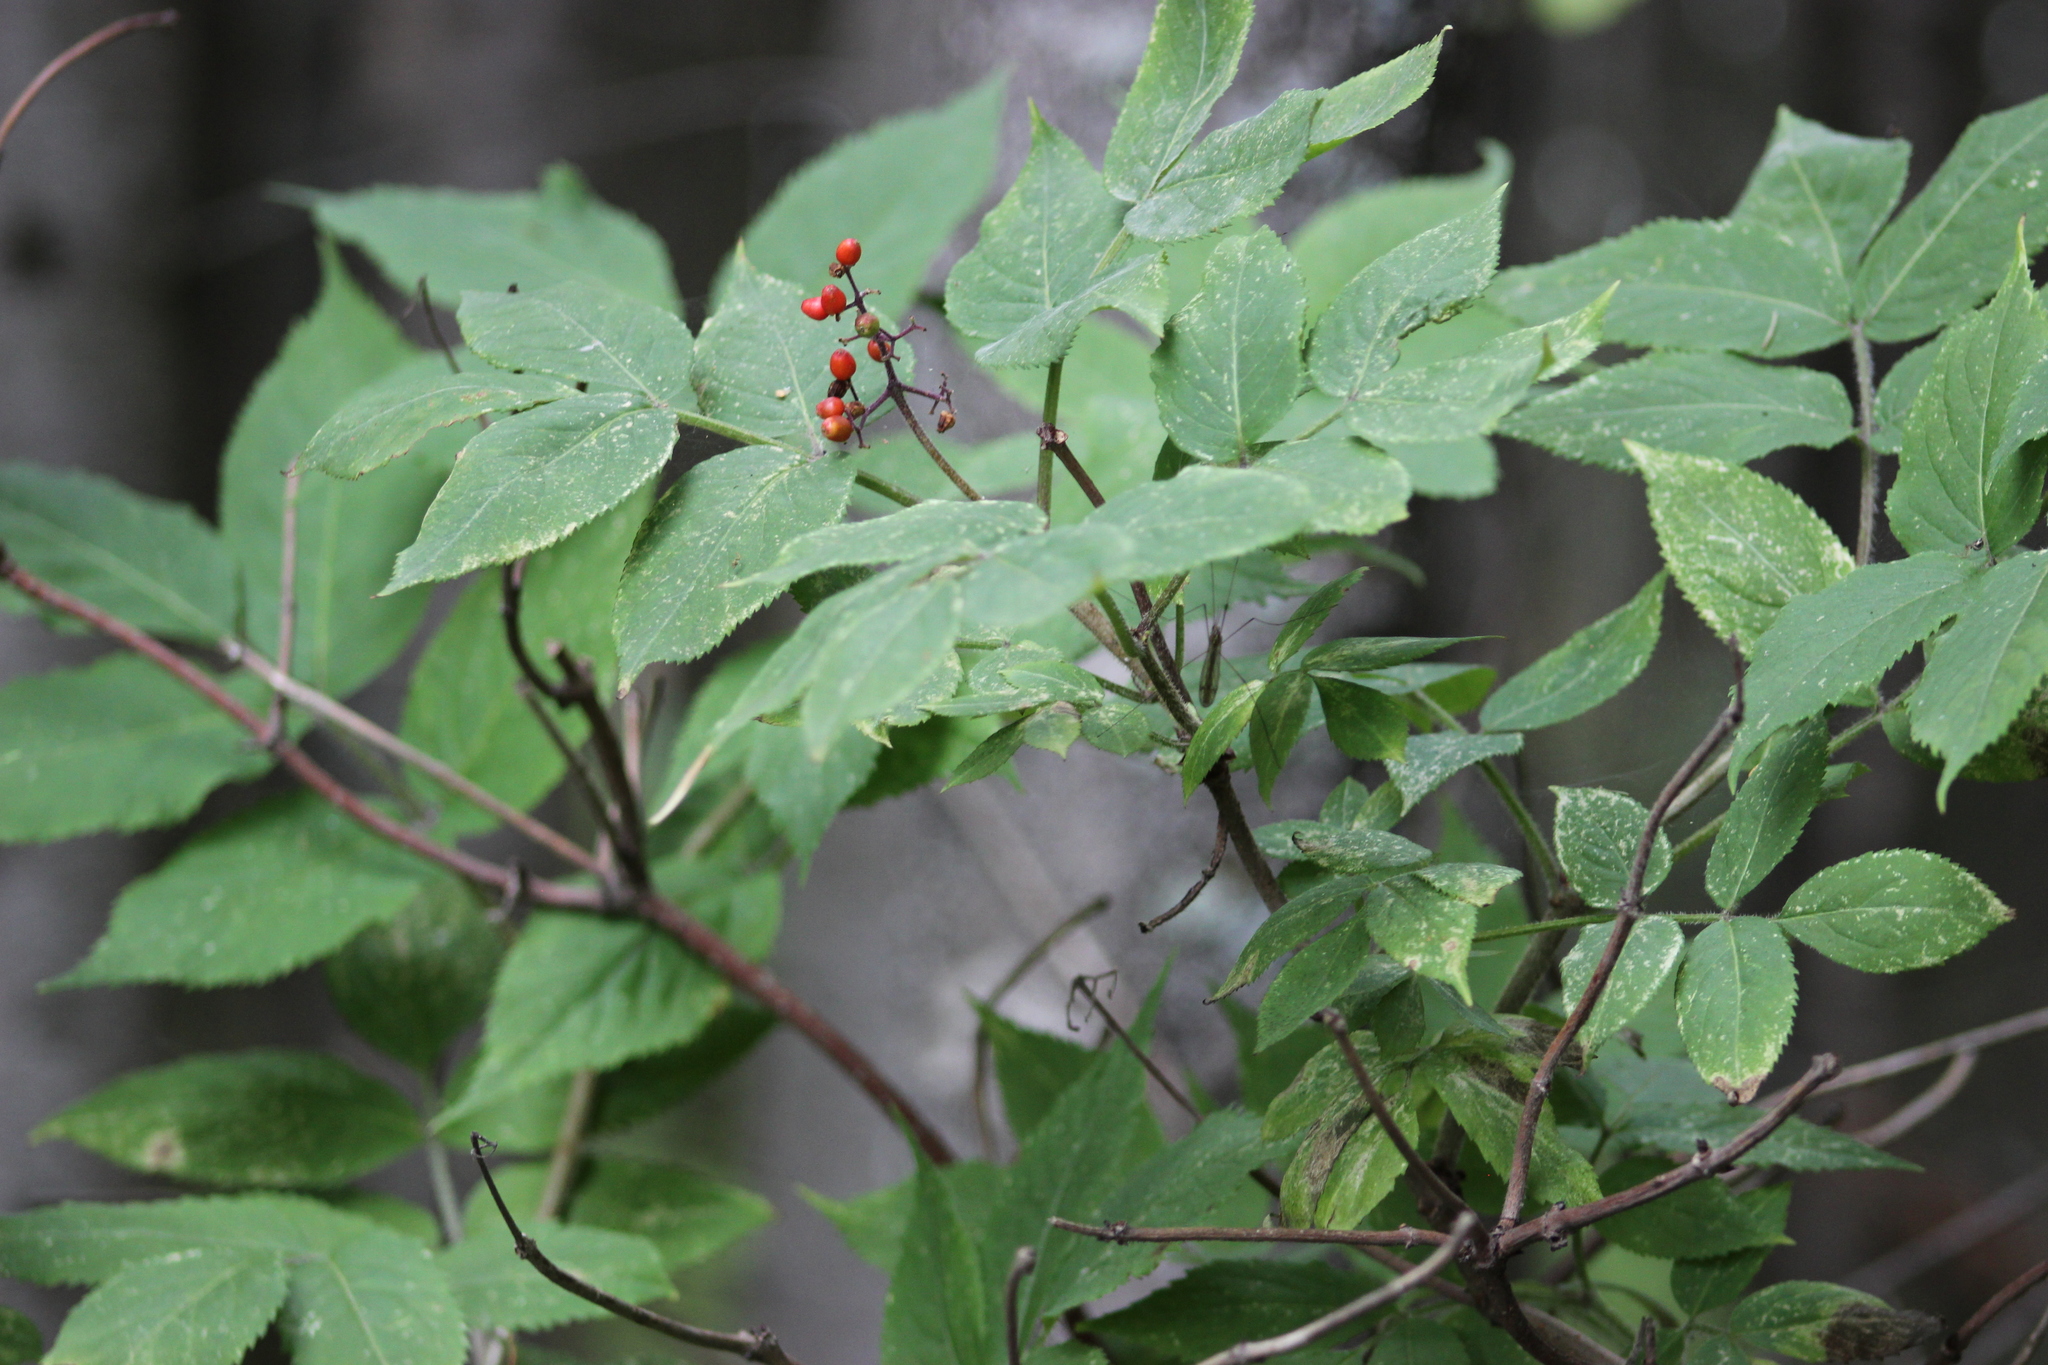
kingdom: Plantae
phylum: Tracheophyta
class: Magnoliopsida
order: Dipsacales
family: Viburnaceae
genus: Sambucus
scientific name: Sambucus sibirica
